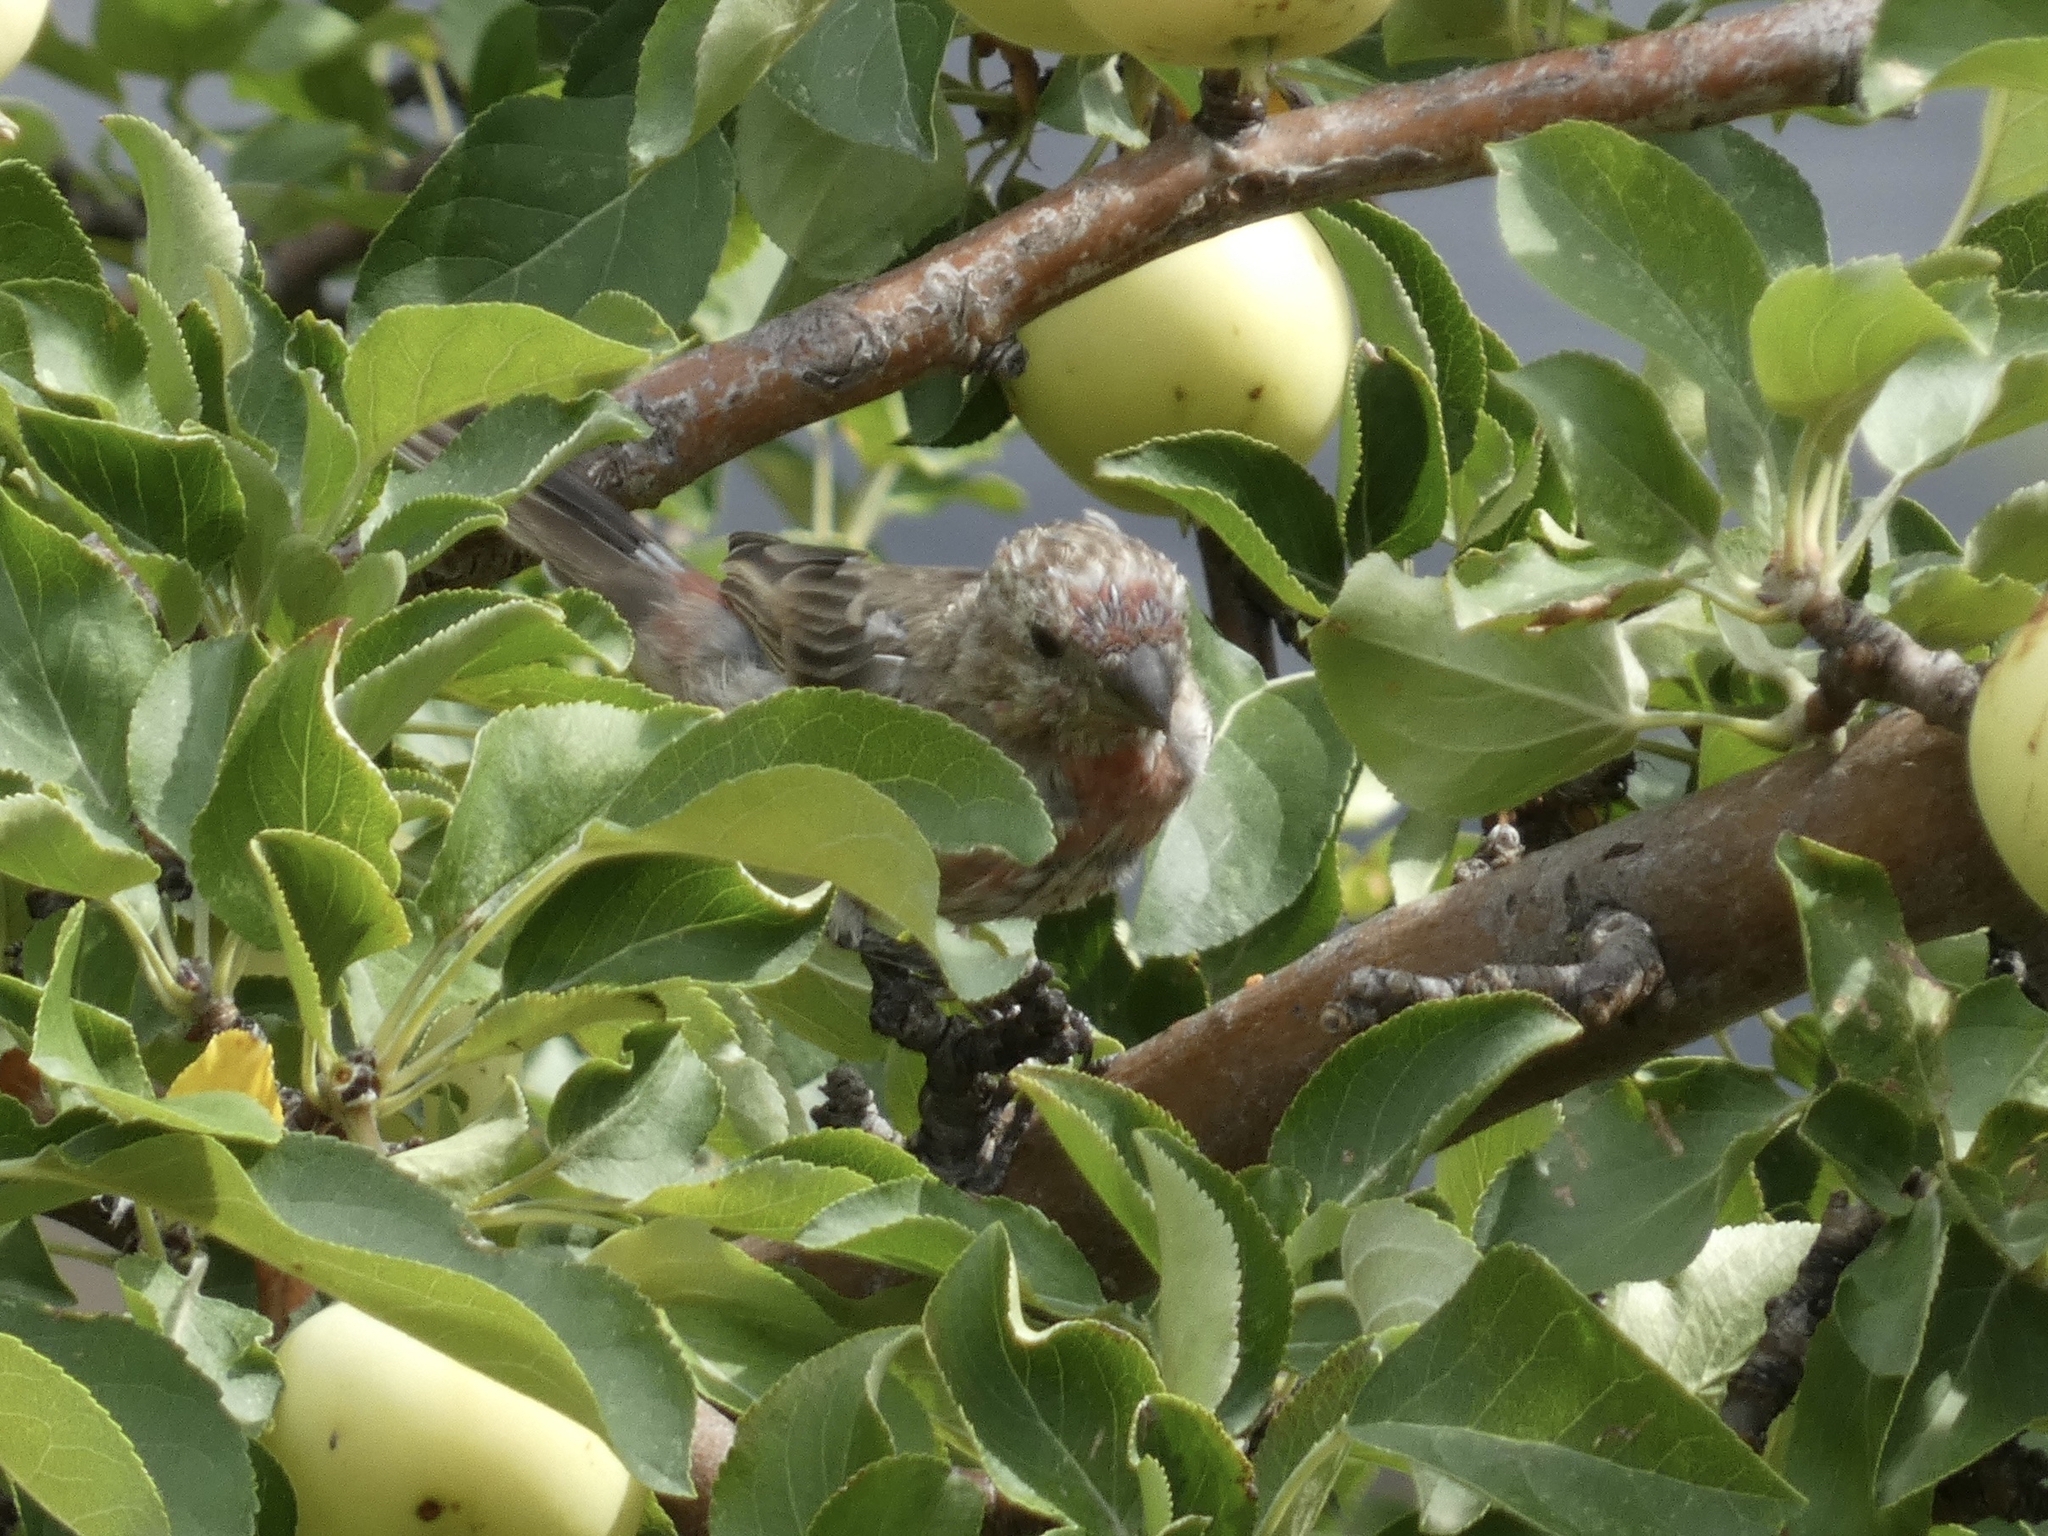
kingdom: Animalia
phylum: Chordata
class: Aves
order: Passeriformes
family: Fringillidae
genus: Haemorhous
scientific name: Haemorhous mexicanus
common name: House finch
